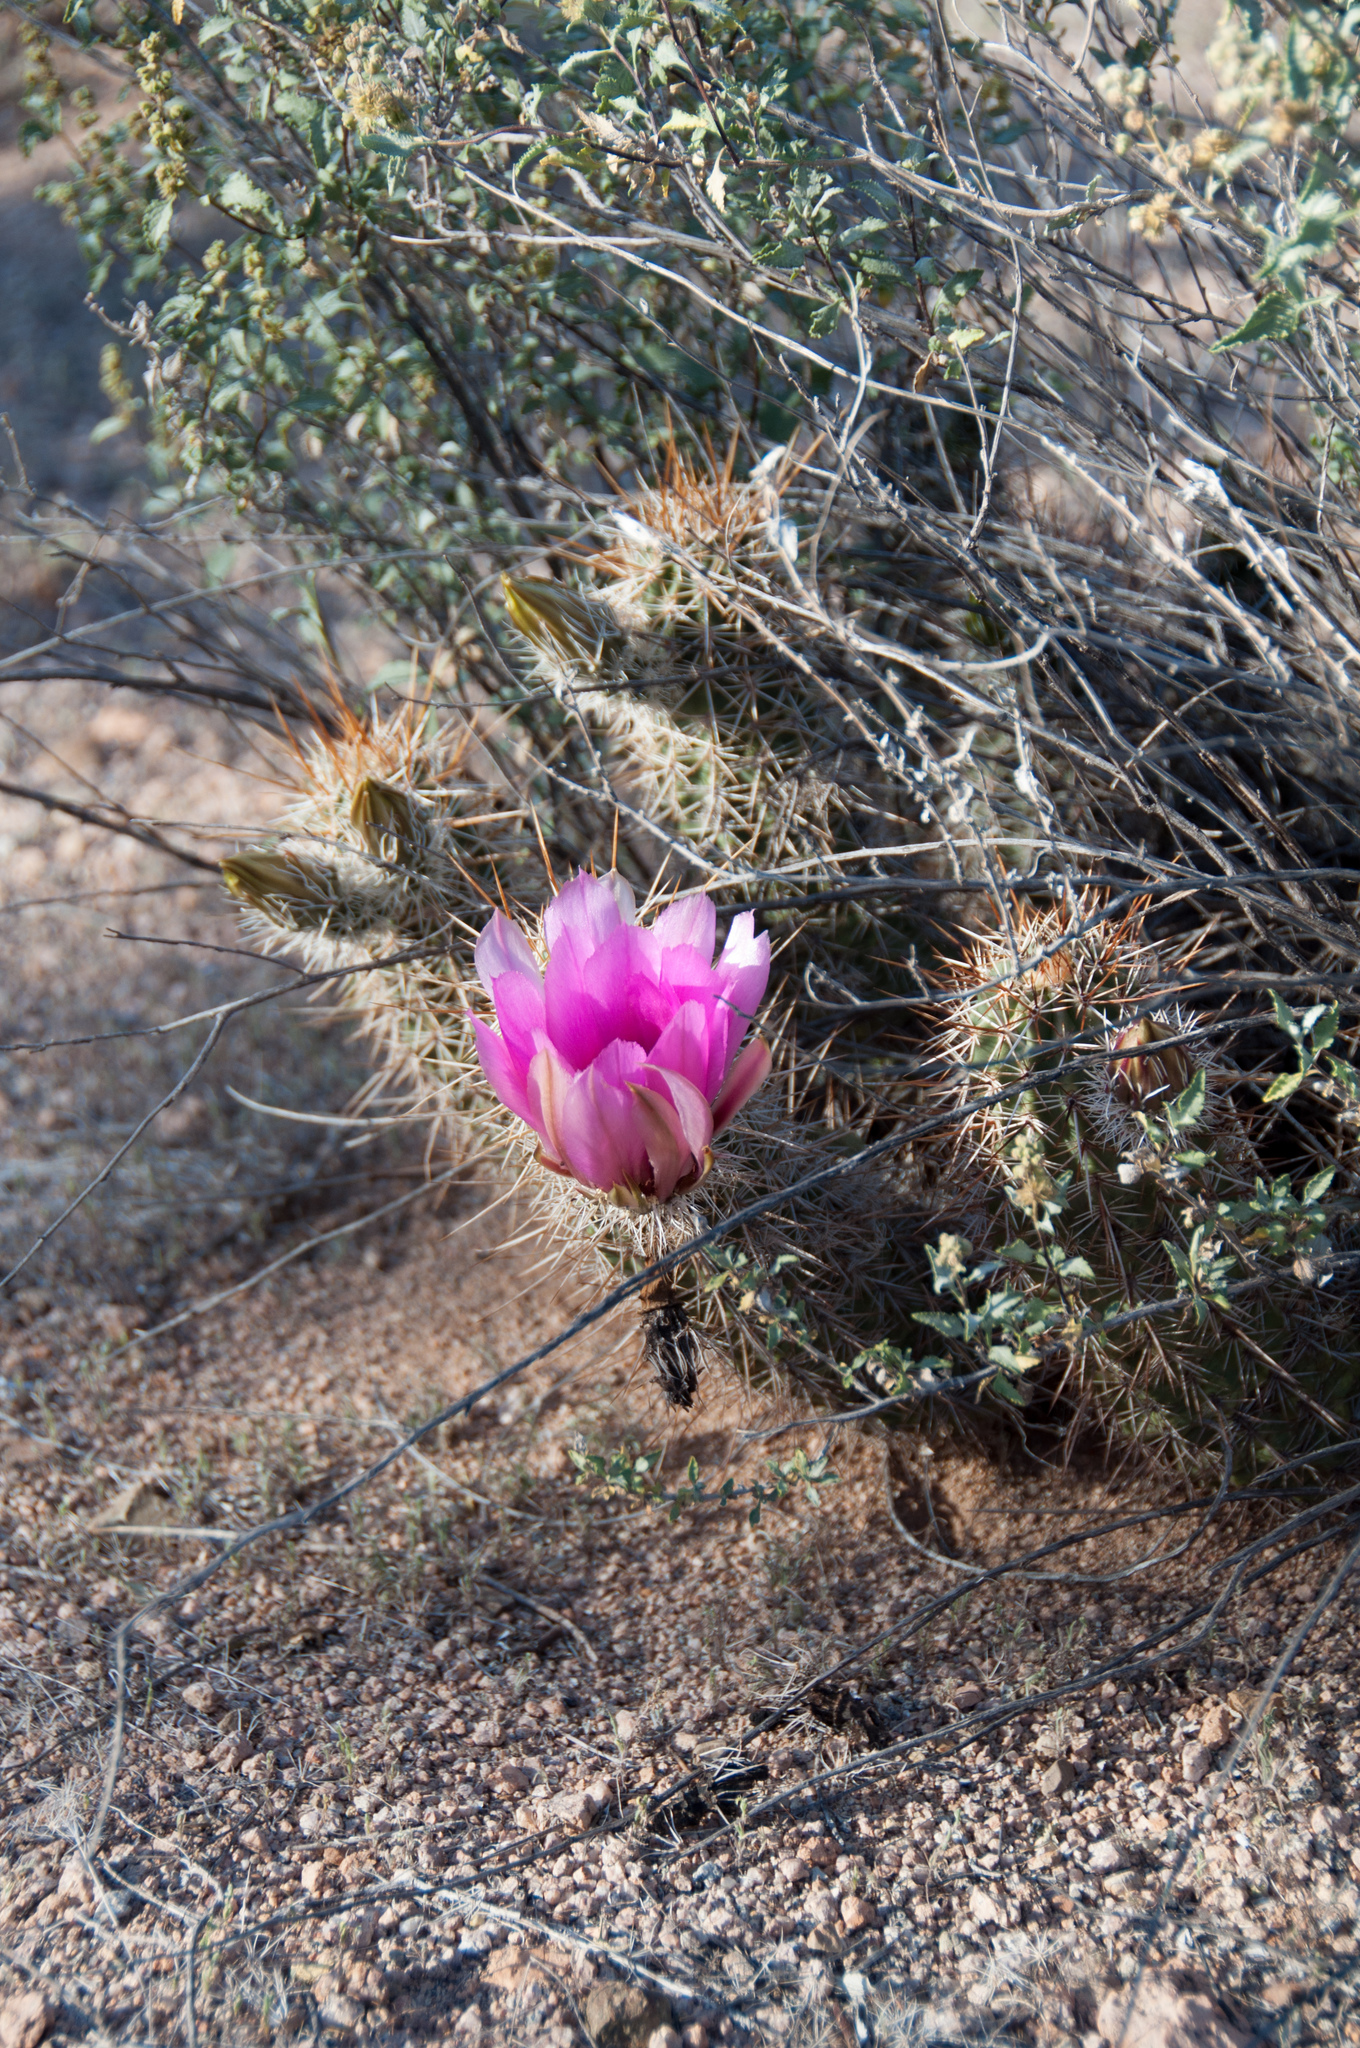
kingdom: Plantae
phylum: Tracheophyta
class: Magnoliopsida
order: Caryophyllales
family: Cactaceae
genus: Echinocereus
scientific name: Echinocereus fasciculatus
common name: Bundle hedgehog
